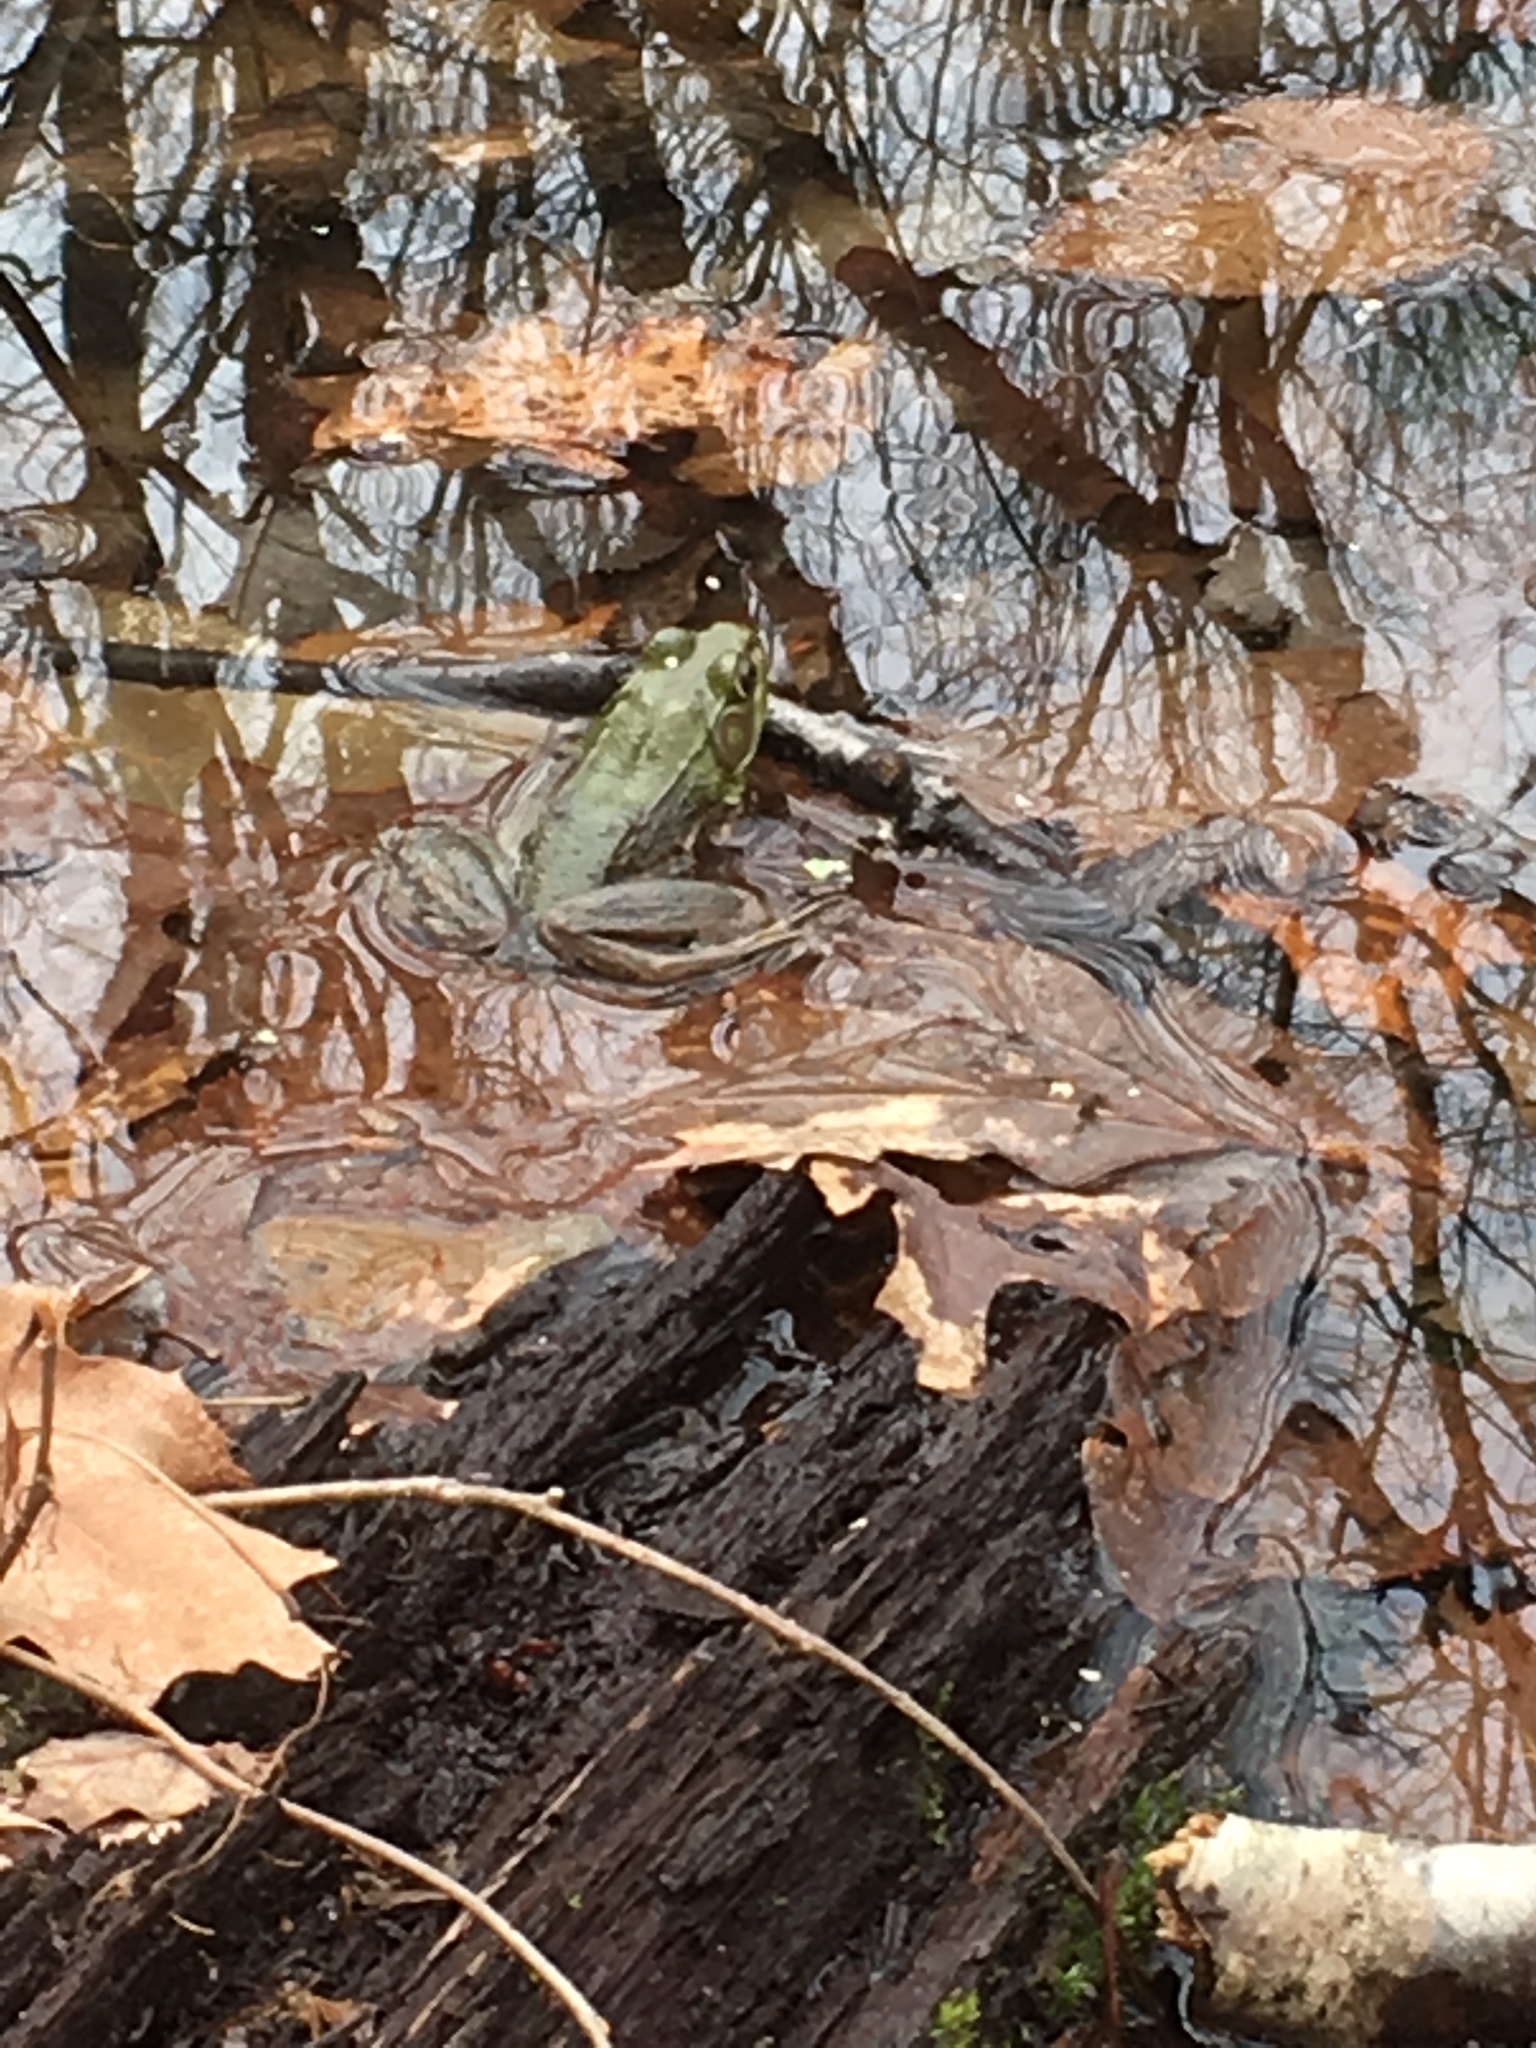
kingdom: Animalia
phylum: Chordata
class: Amphibia
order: Anura
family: Ranidae
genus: Lithobates
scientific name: Lithobates clamitans
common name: Green frog
